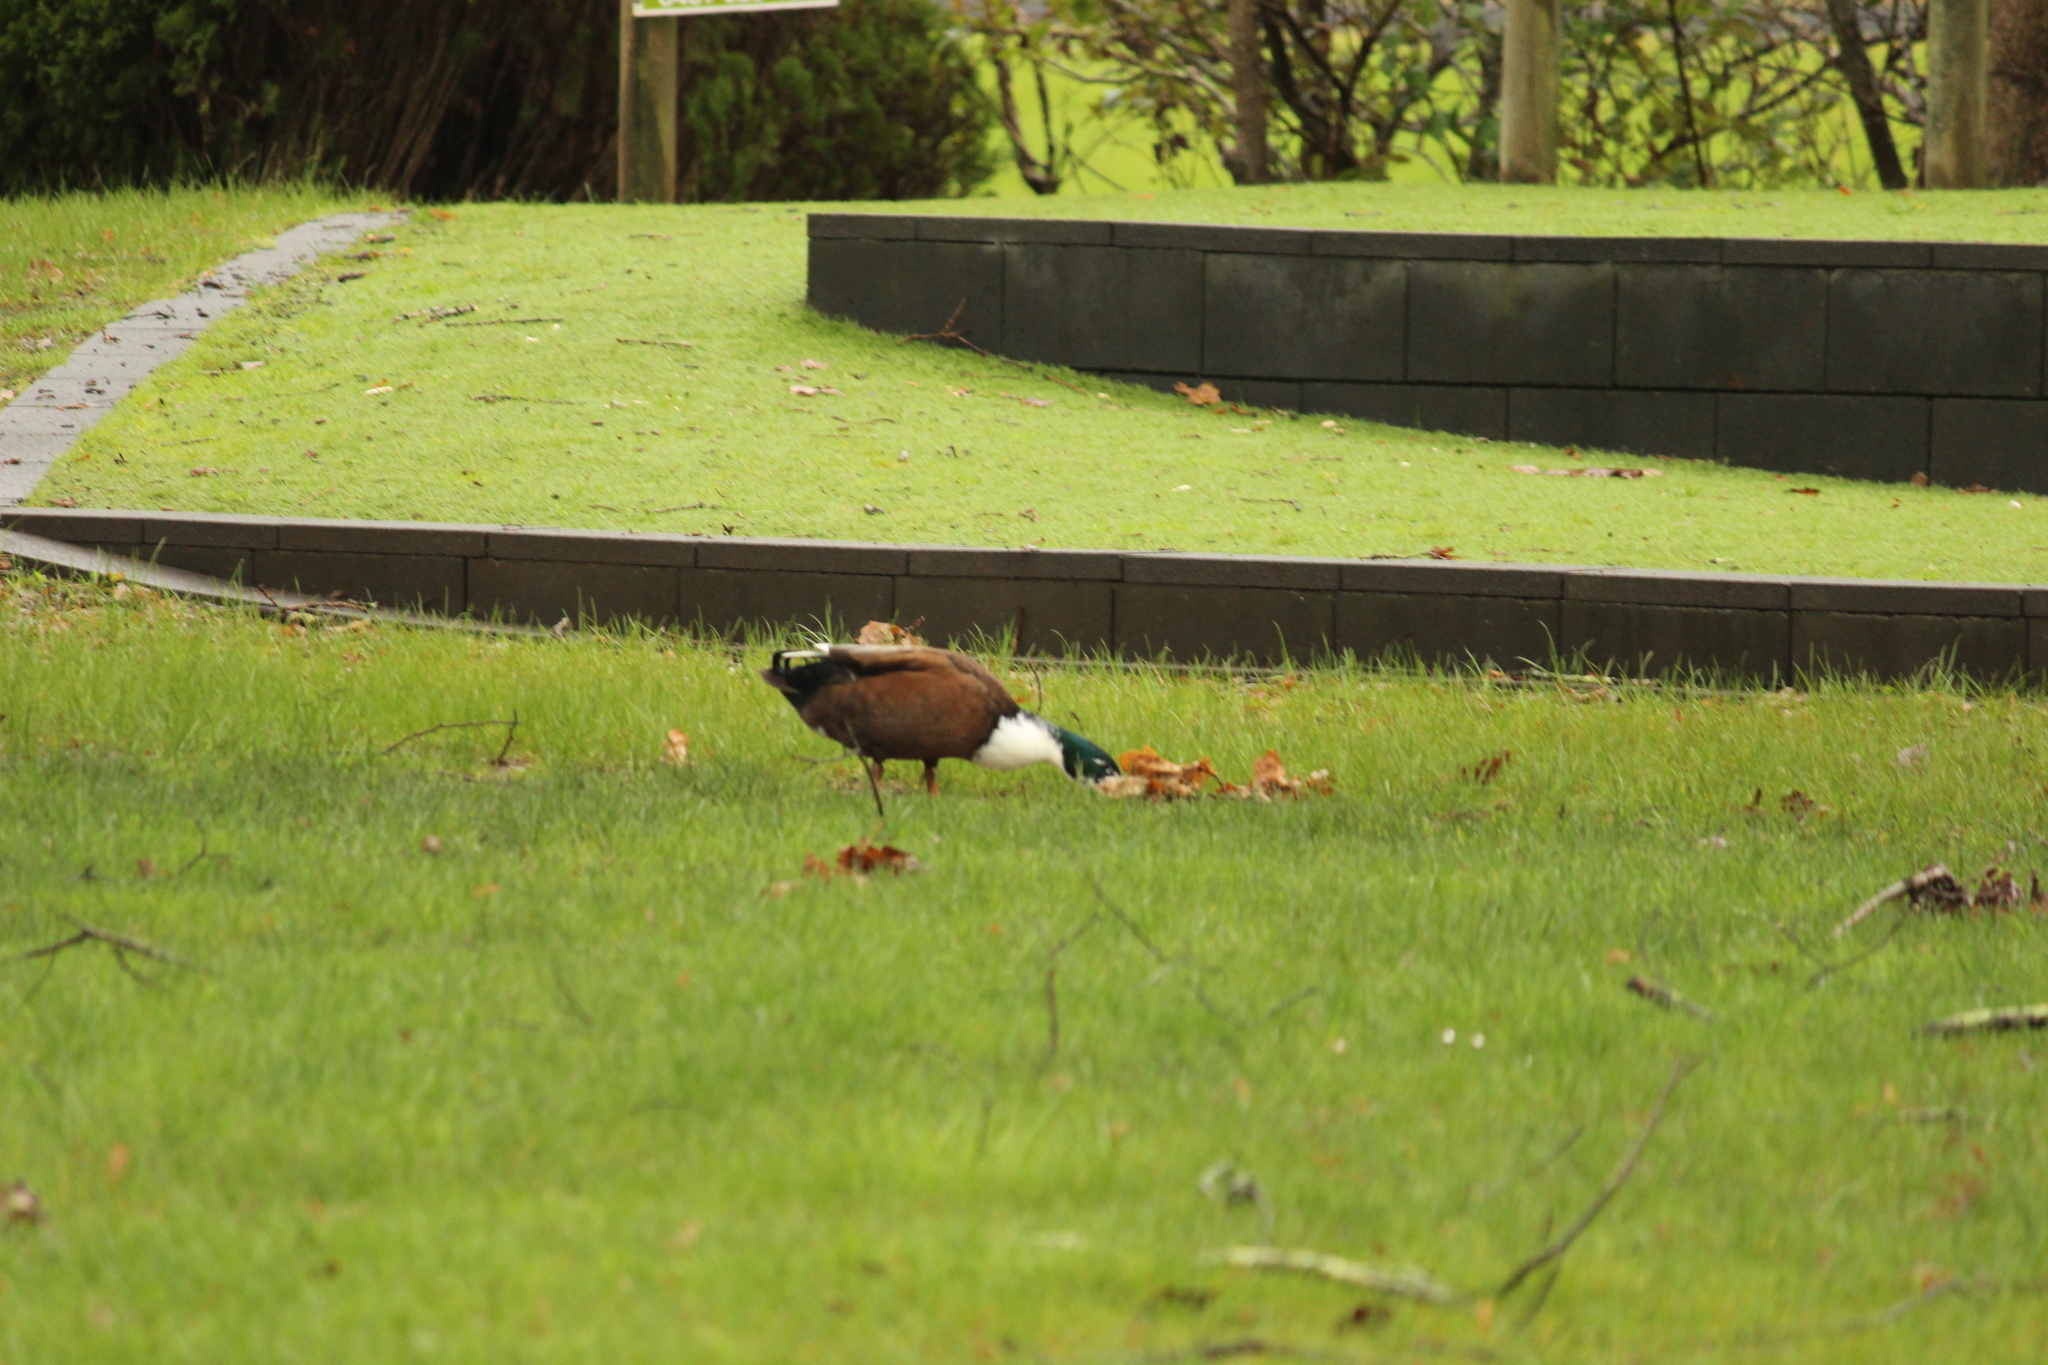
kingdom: Animalia
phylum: Chordata
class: Aves
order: Anseriformes
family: Anatidae
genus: Anas
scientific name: Anas platyrhynchos
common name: Mallard
